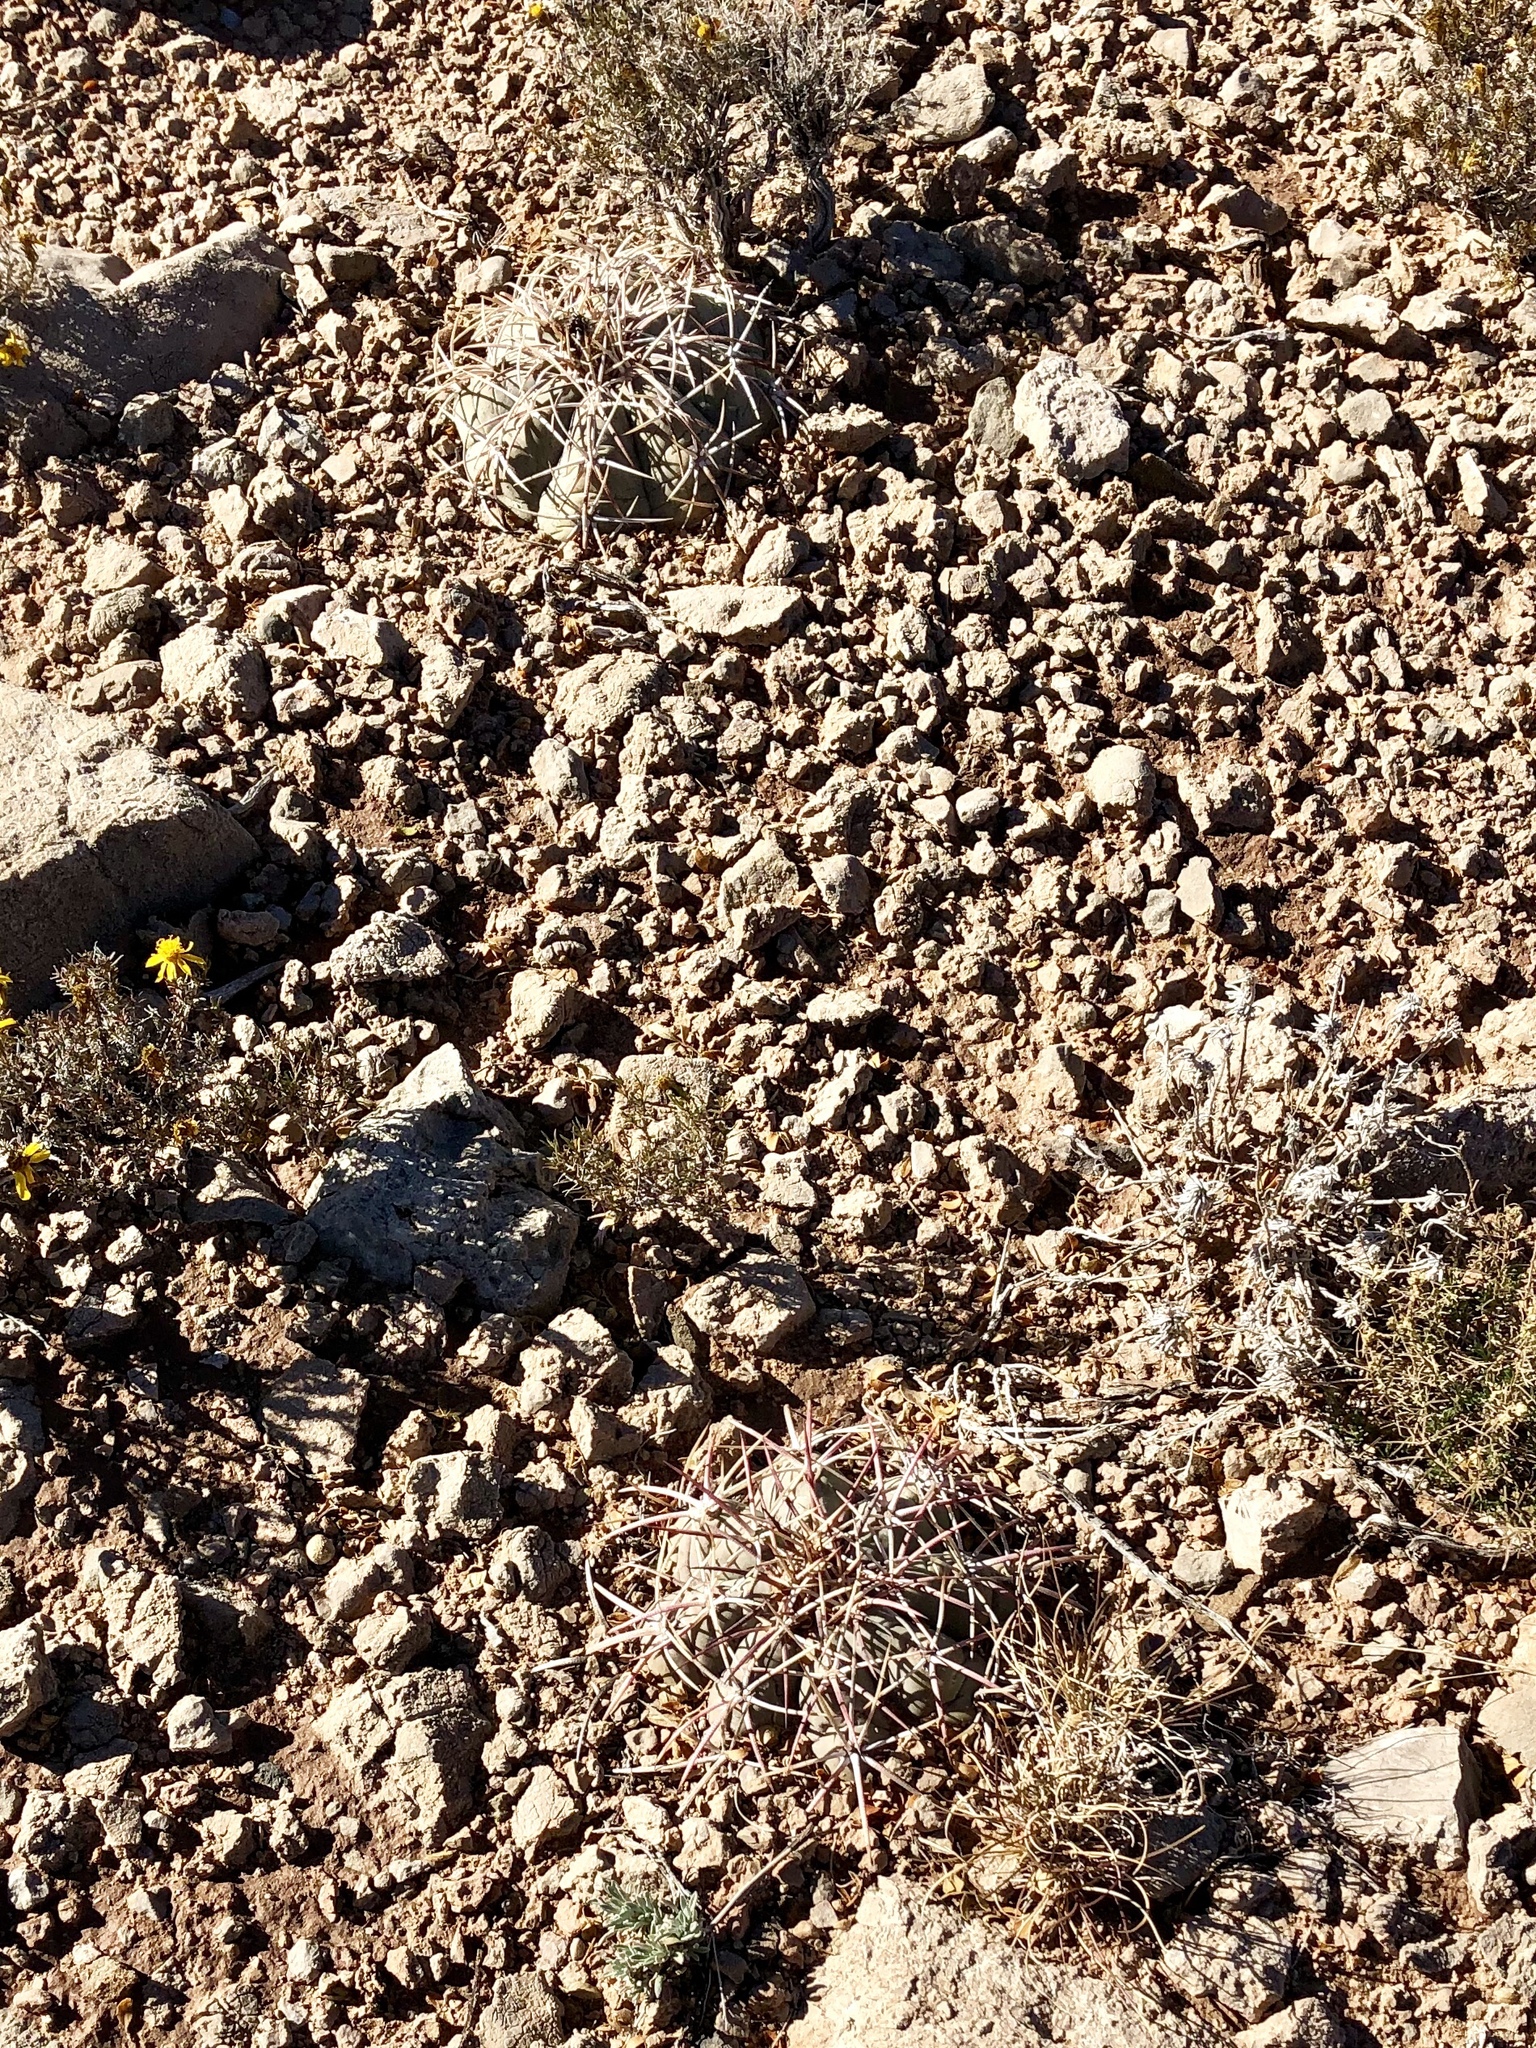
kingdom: Plantae
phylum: Tracheophyta
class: Magnoliopsida
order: Caryophyllales
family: Cactaceae
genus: Echinocactus
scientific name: Echinocactus horizonthalonius
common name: Devilshead
